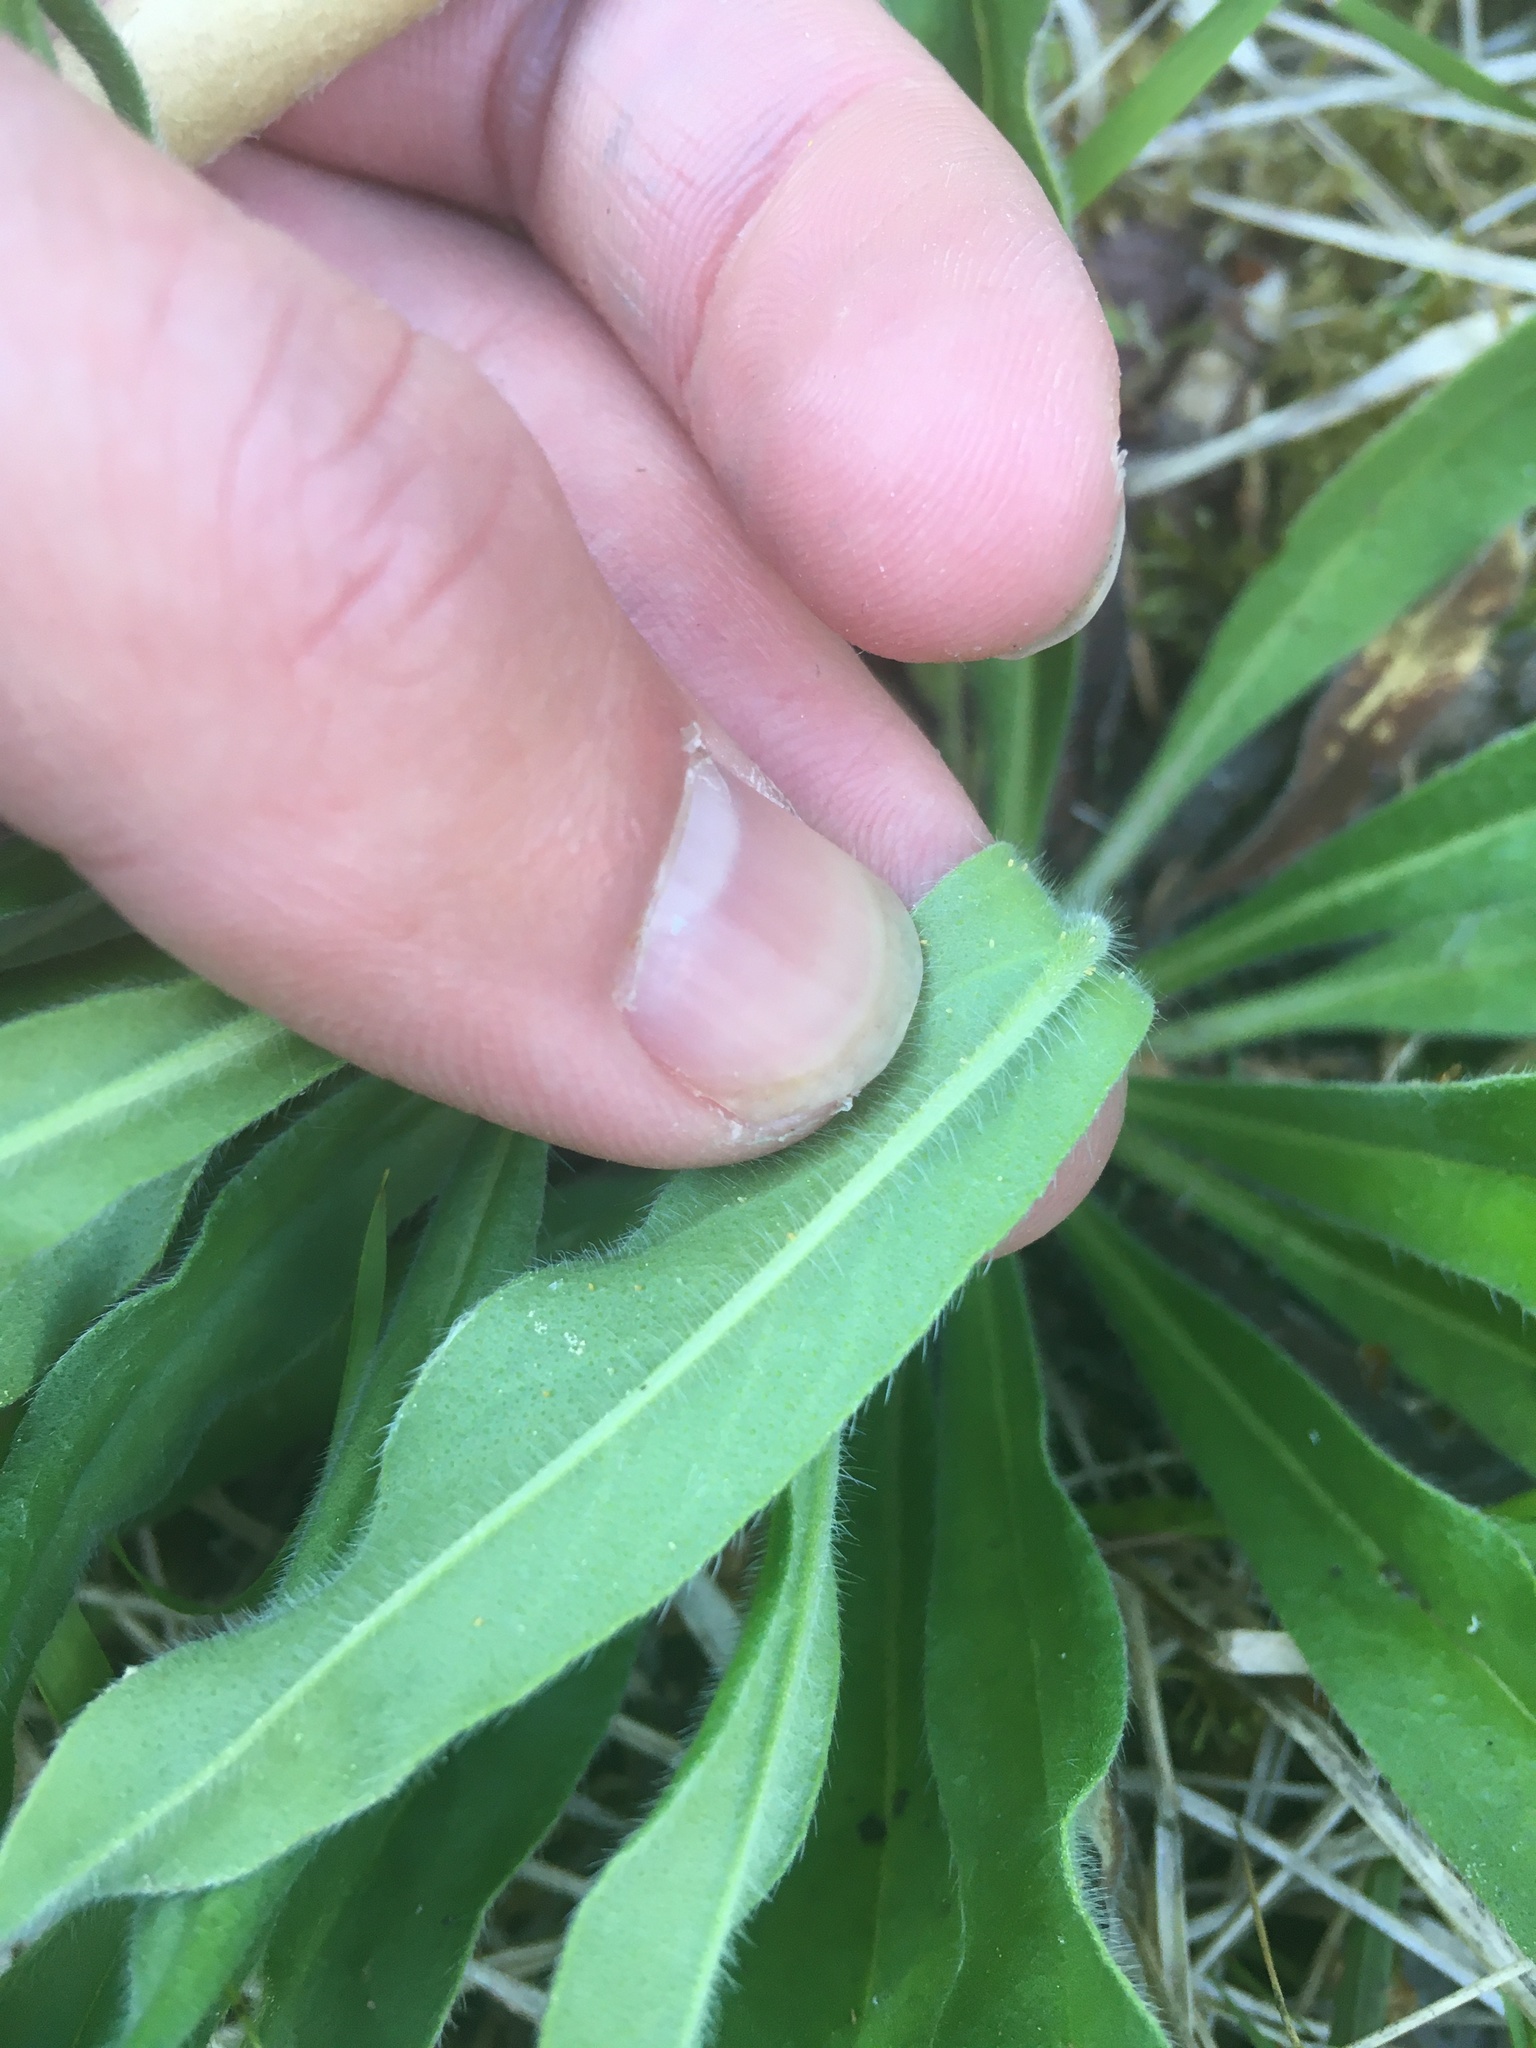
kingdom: Plantae
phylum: Tracheophyta
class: Magnoliopsida
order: Boraginales
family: Boraginaceae
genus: Echium
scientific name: Echium vulgare
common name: Common viper's bugloss
